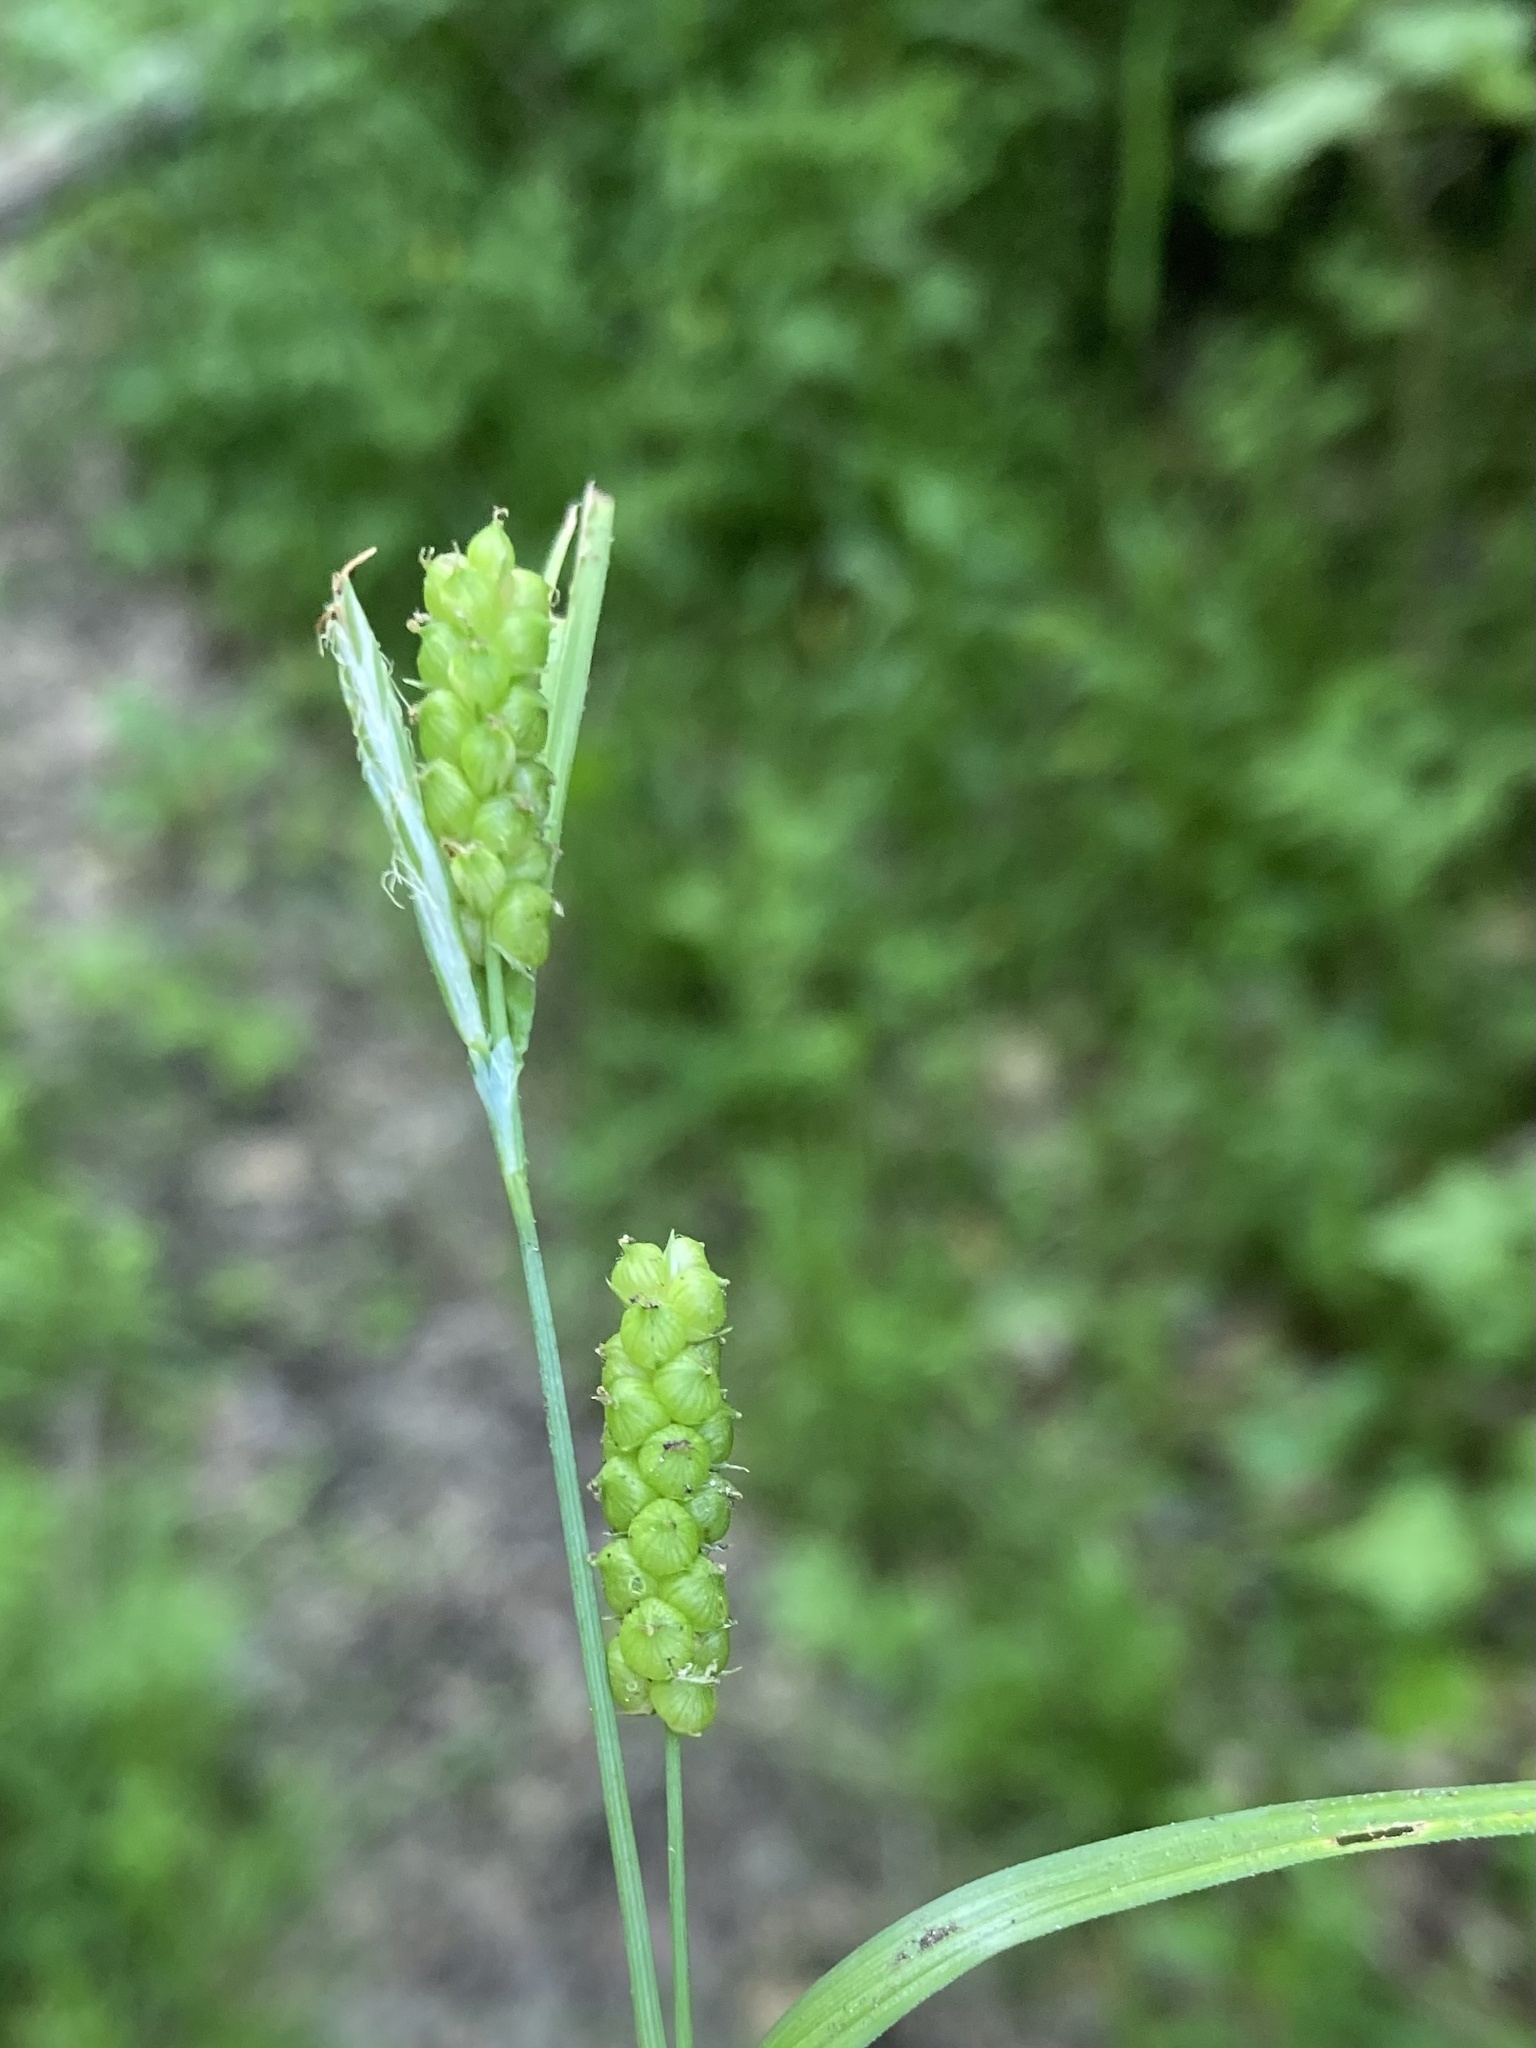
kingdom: Plantae
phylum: Tracheophyta
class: Liliopsida
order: Poales
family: Cyperaceae
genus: Carex
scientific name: Carex granularis
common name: Granular sedge
